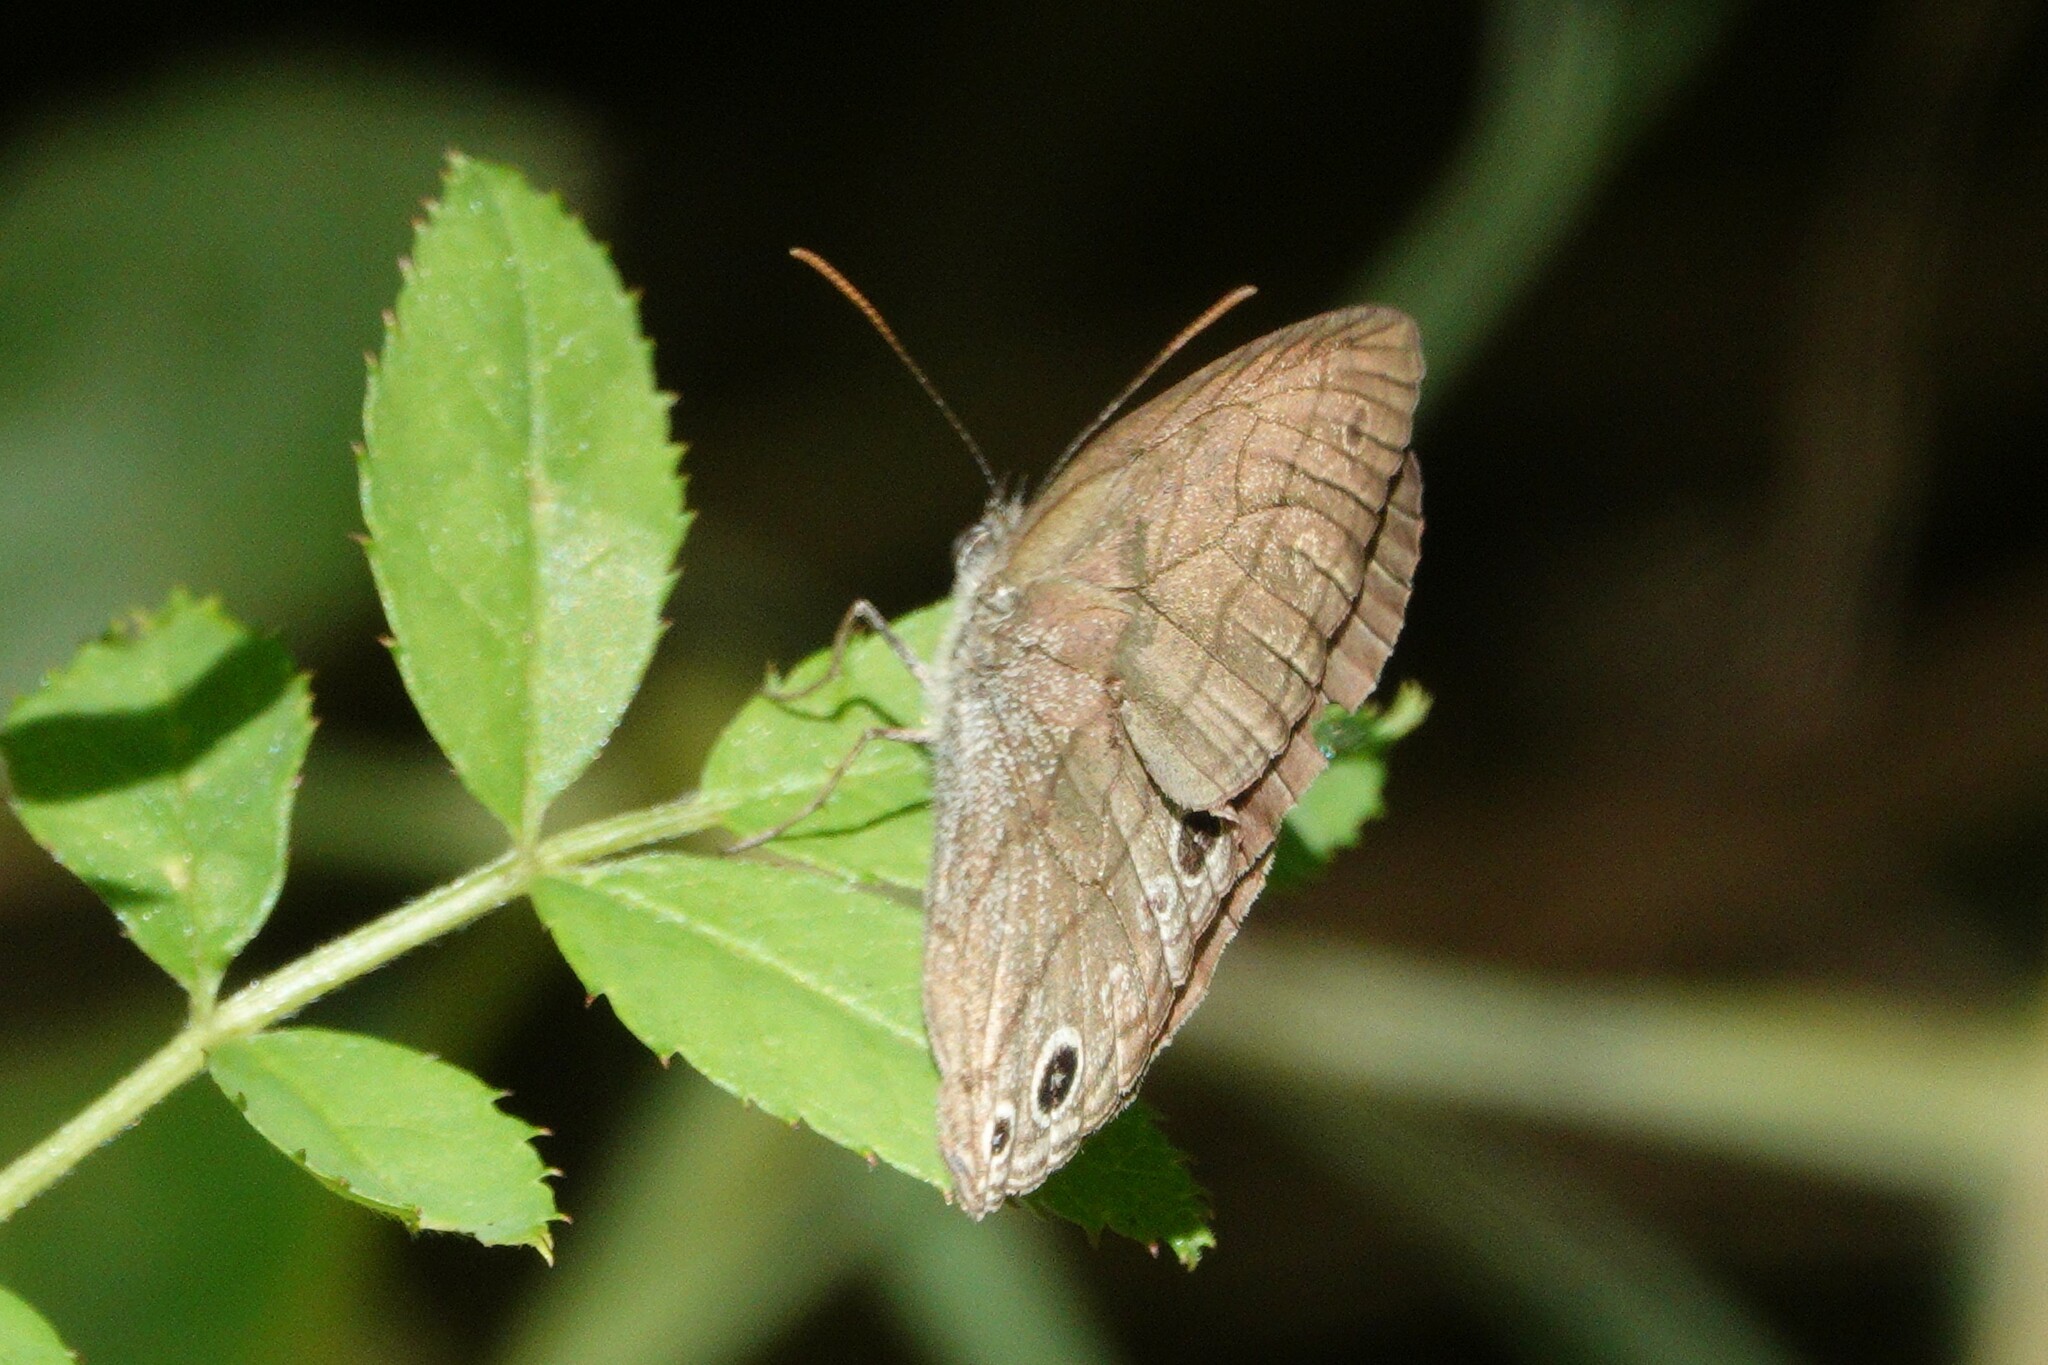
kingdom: Animalia
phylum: Arthropoda
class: Insecta
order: Lepidoptera
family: Nymphalidae
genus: Hermeuptychia
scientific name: Hermeuptychia hermes
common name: Hermes satyr
